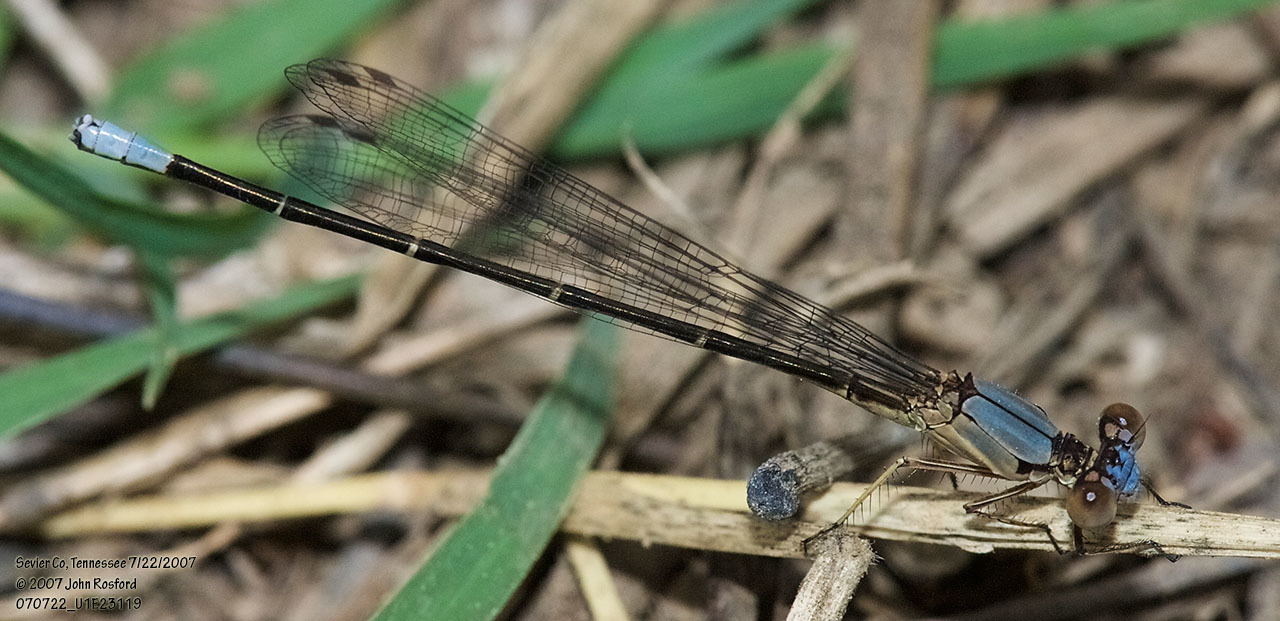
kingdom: Animalia
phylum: Arthropoda
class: Insecta
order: Odonata
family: Coenagrionidae
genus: Argia
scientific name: Argia apicalis
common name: Blue-fronted dancer
